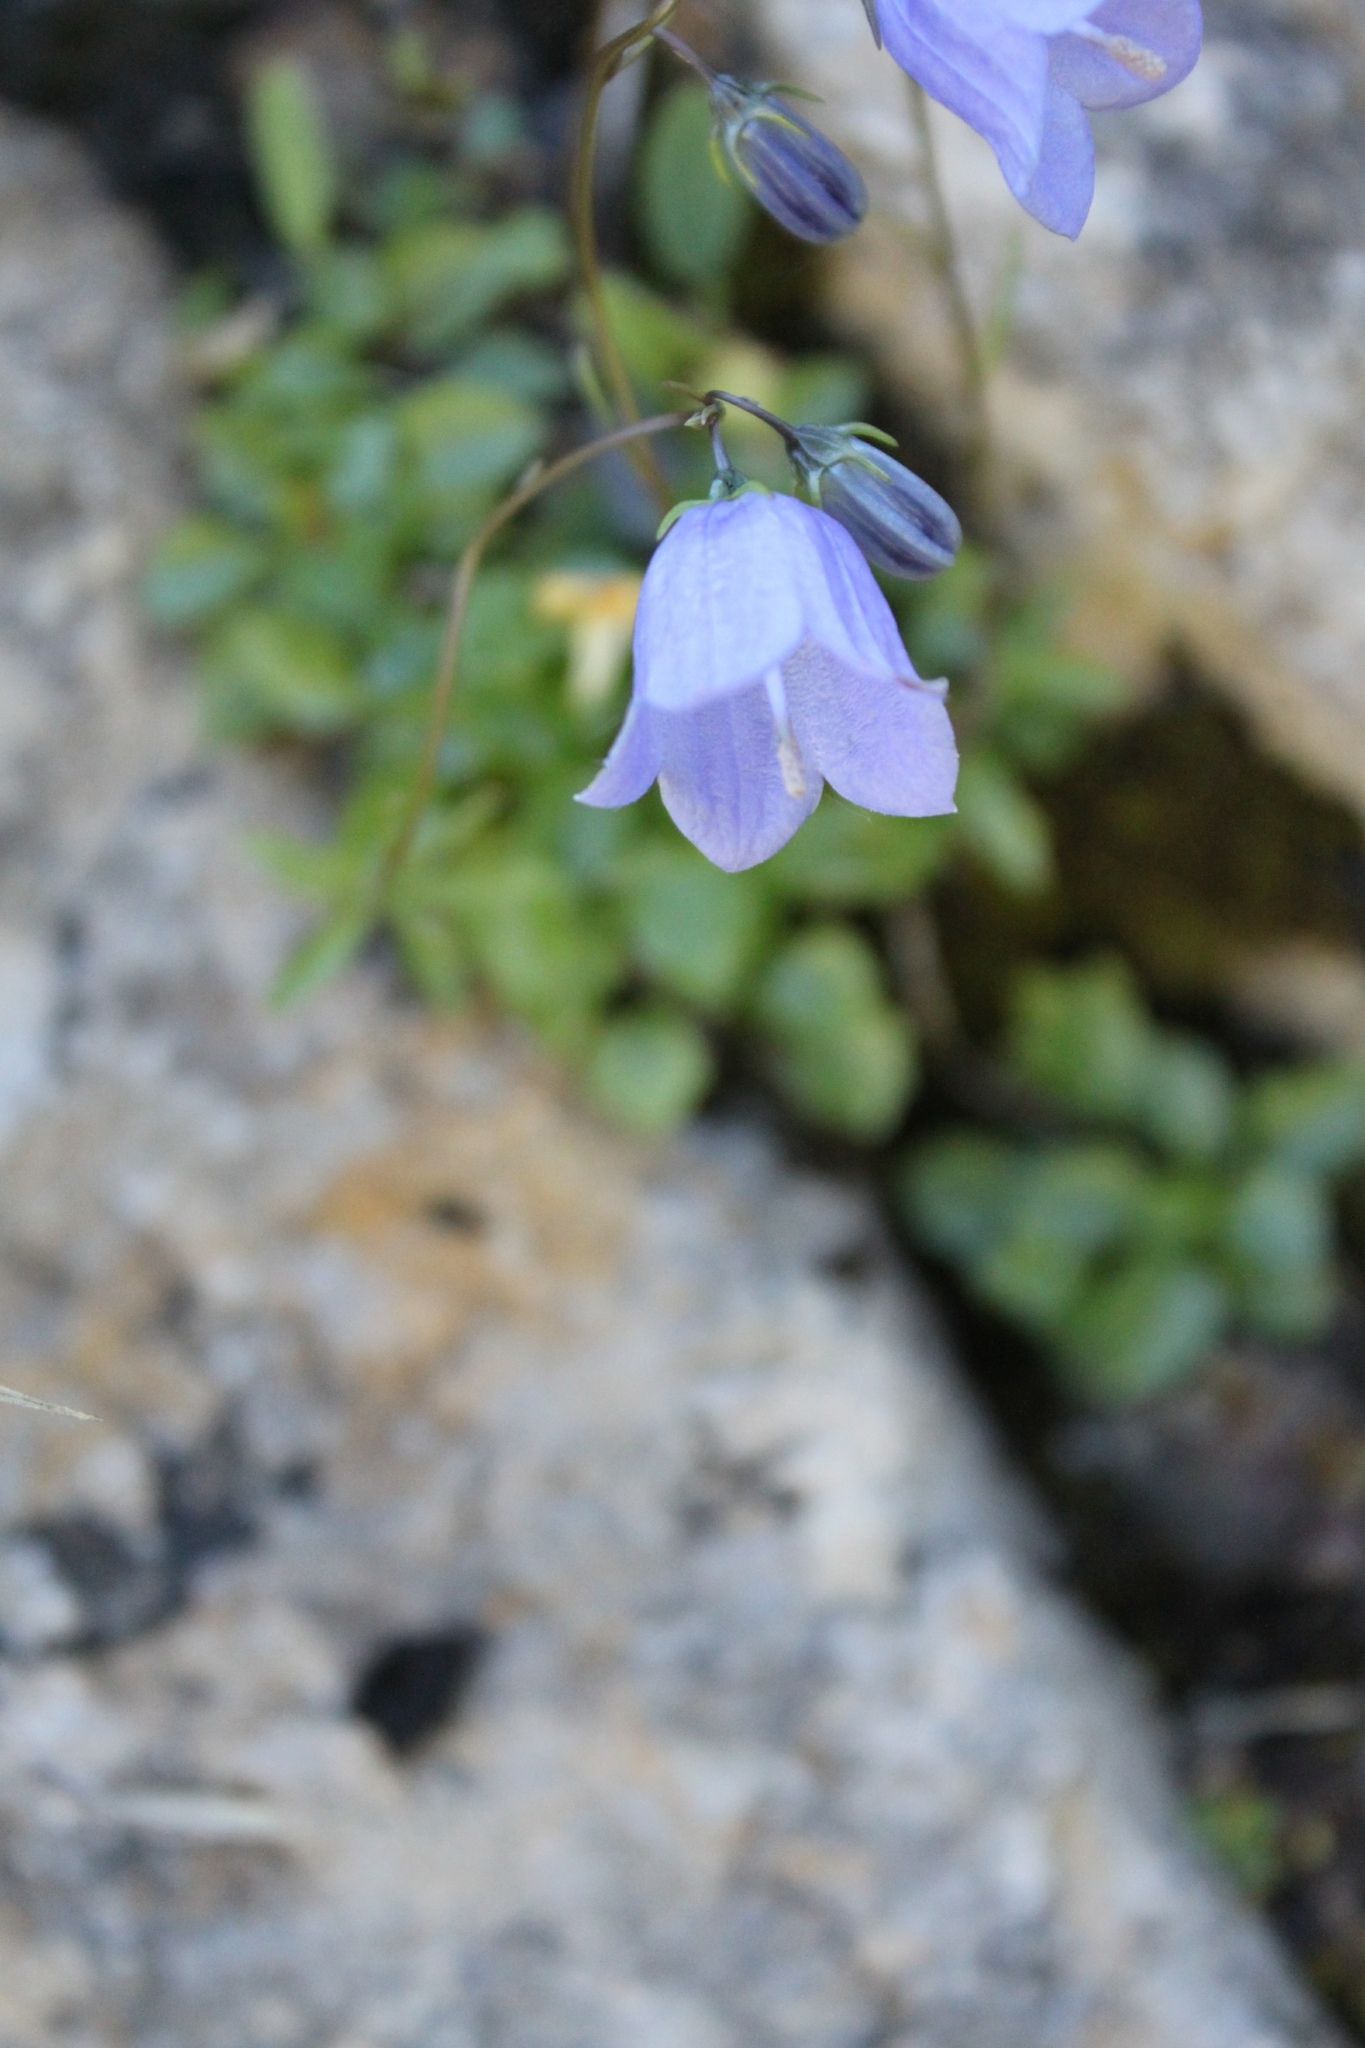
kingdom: Plantae
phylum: Tracheophyta
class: Magnoliopsida
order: Asterales
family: Campanulaceae
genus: Campanula
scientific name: Campanula cochleariifolia
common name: Fairies'-thimbles
